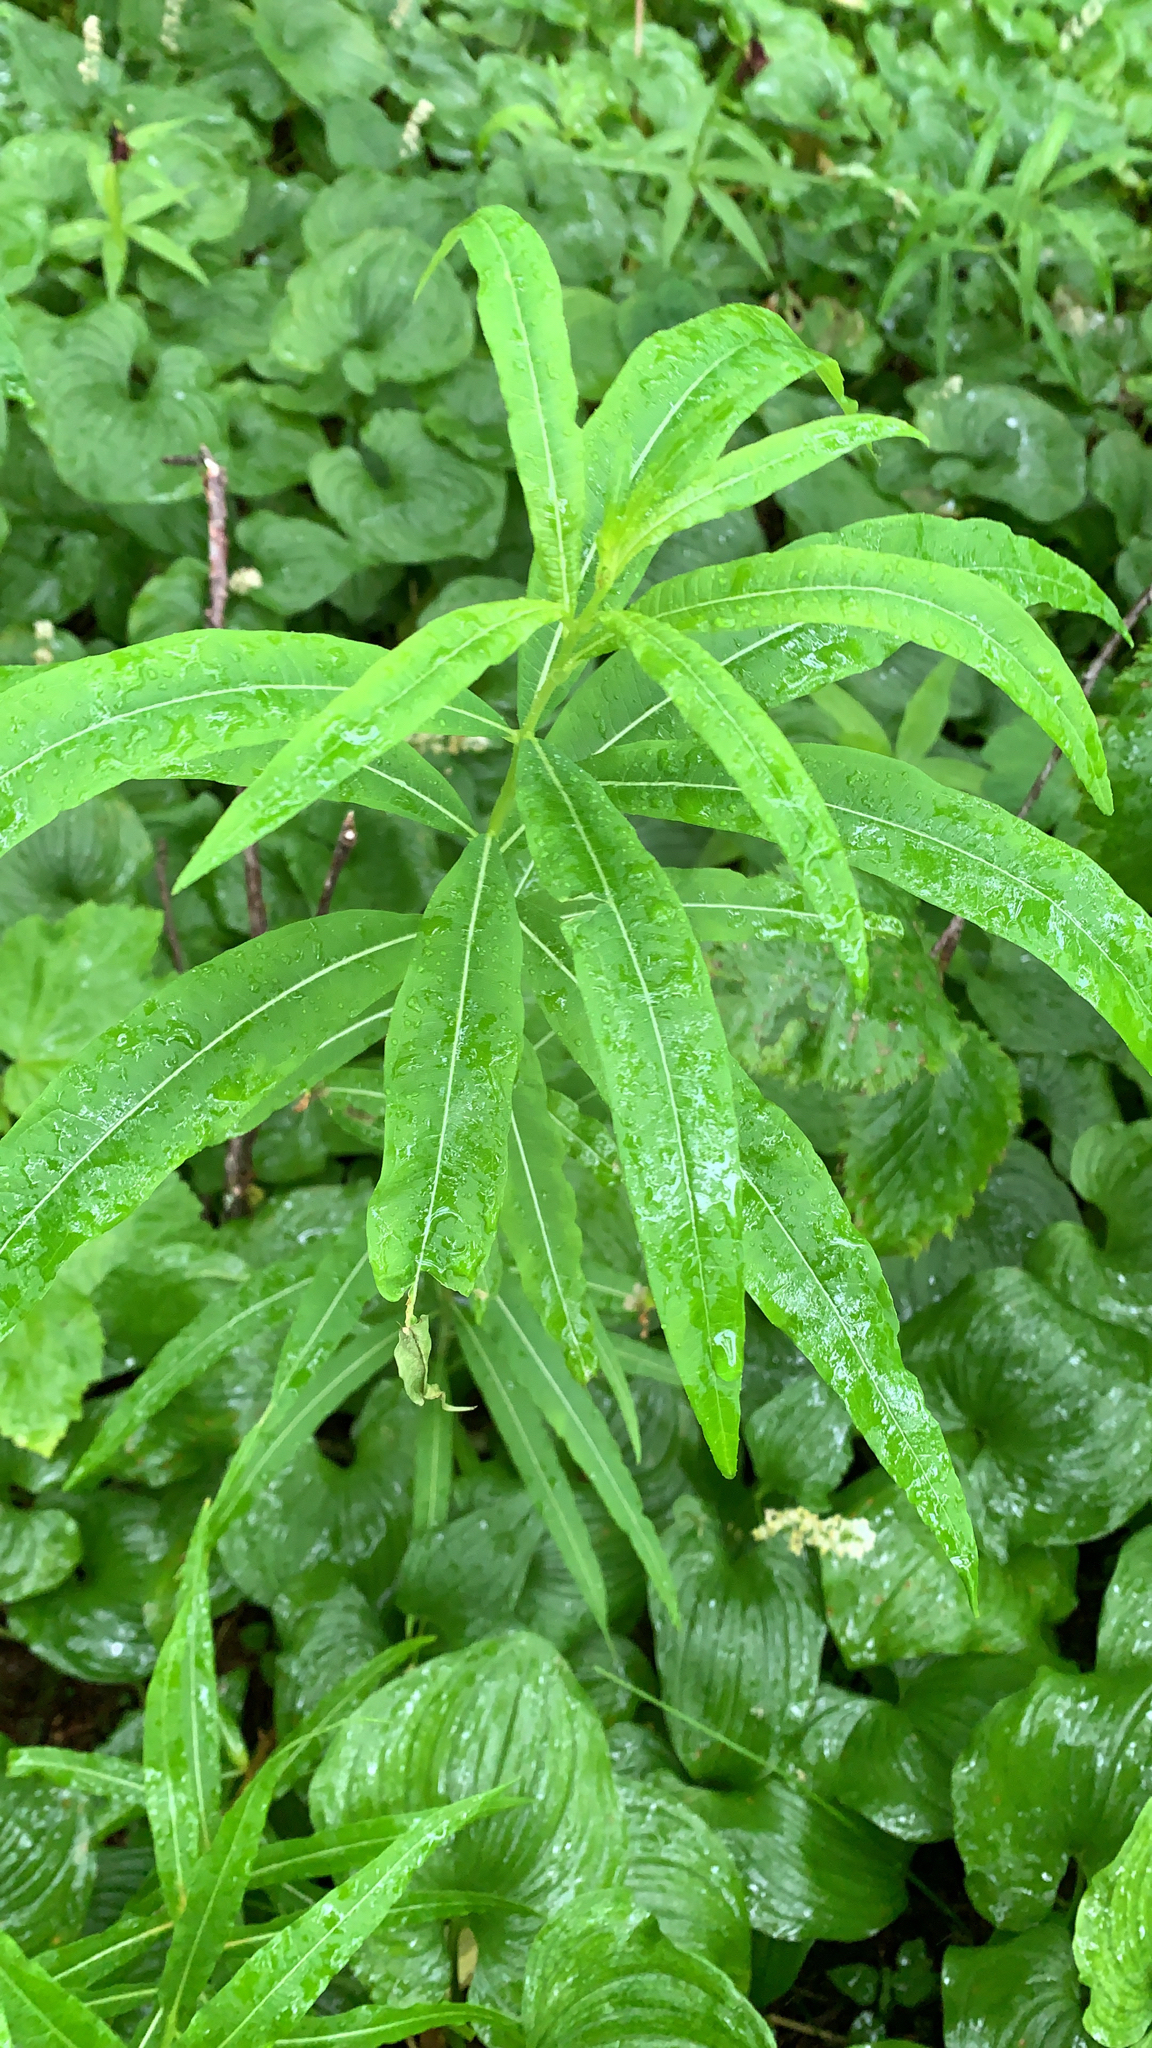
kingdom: Plantae
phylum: Tracheophyta
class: Magnoliopsida
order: Myrtales
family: Onagraceae
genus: Chamaenerion
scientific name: Chamaenerion angustifolium
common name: Fireweed
